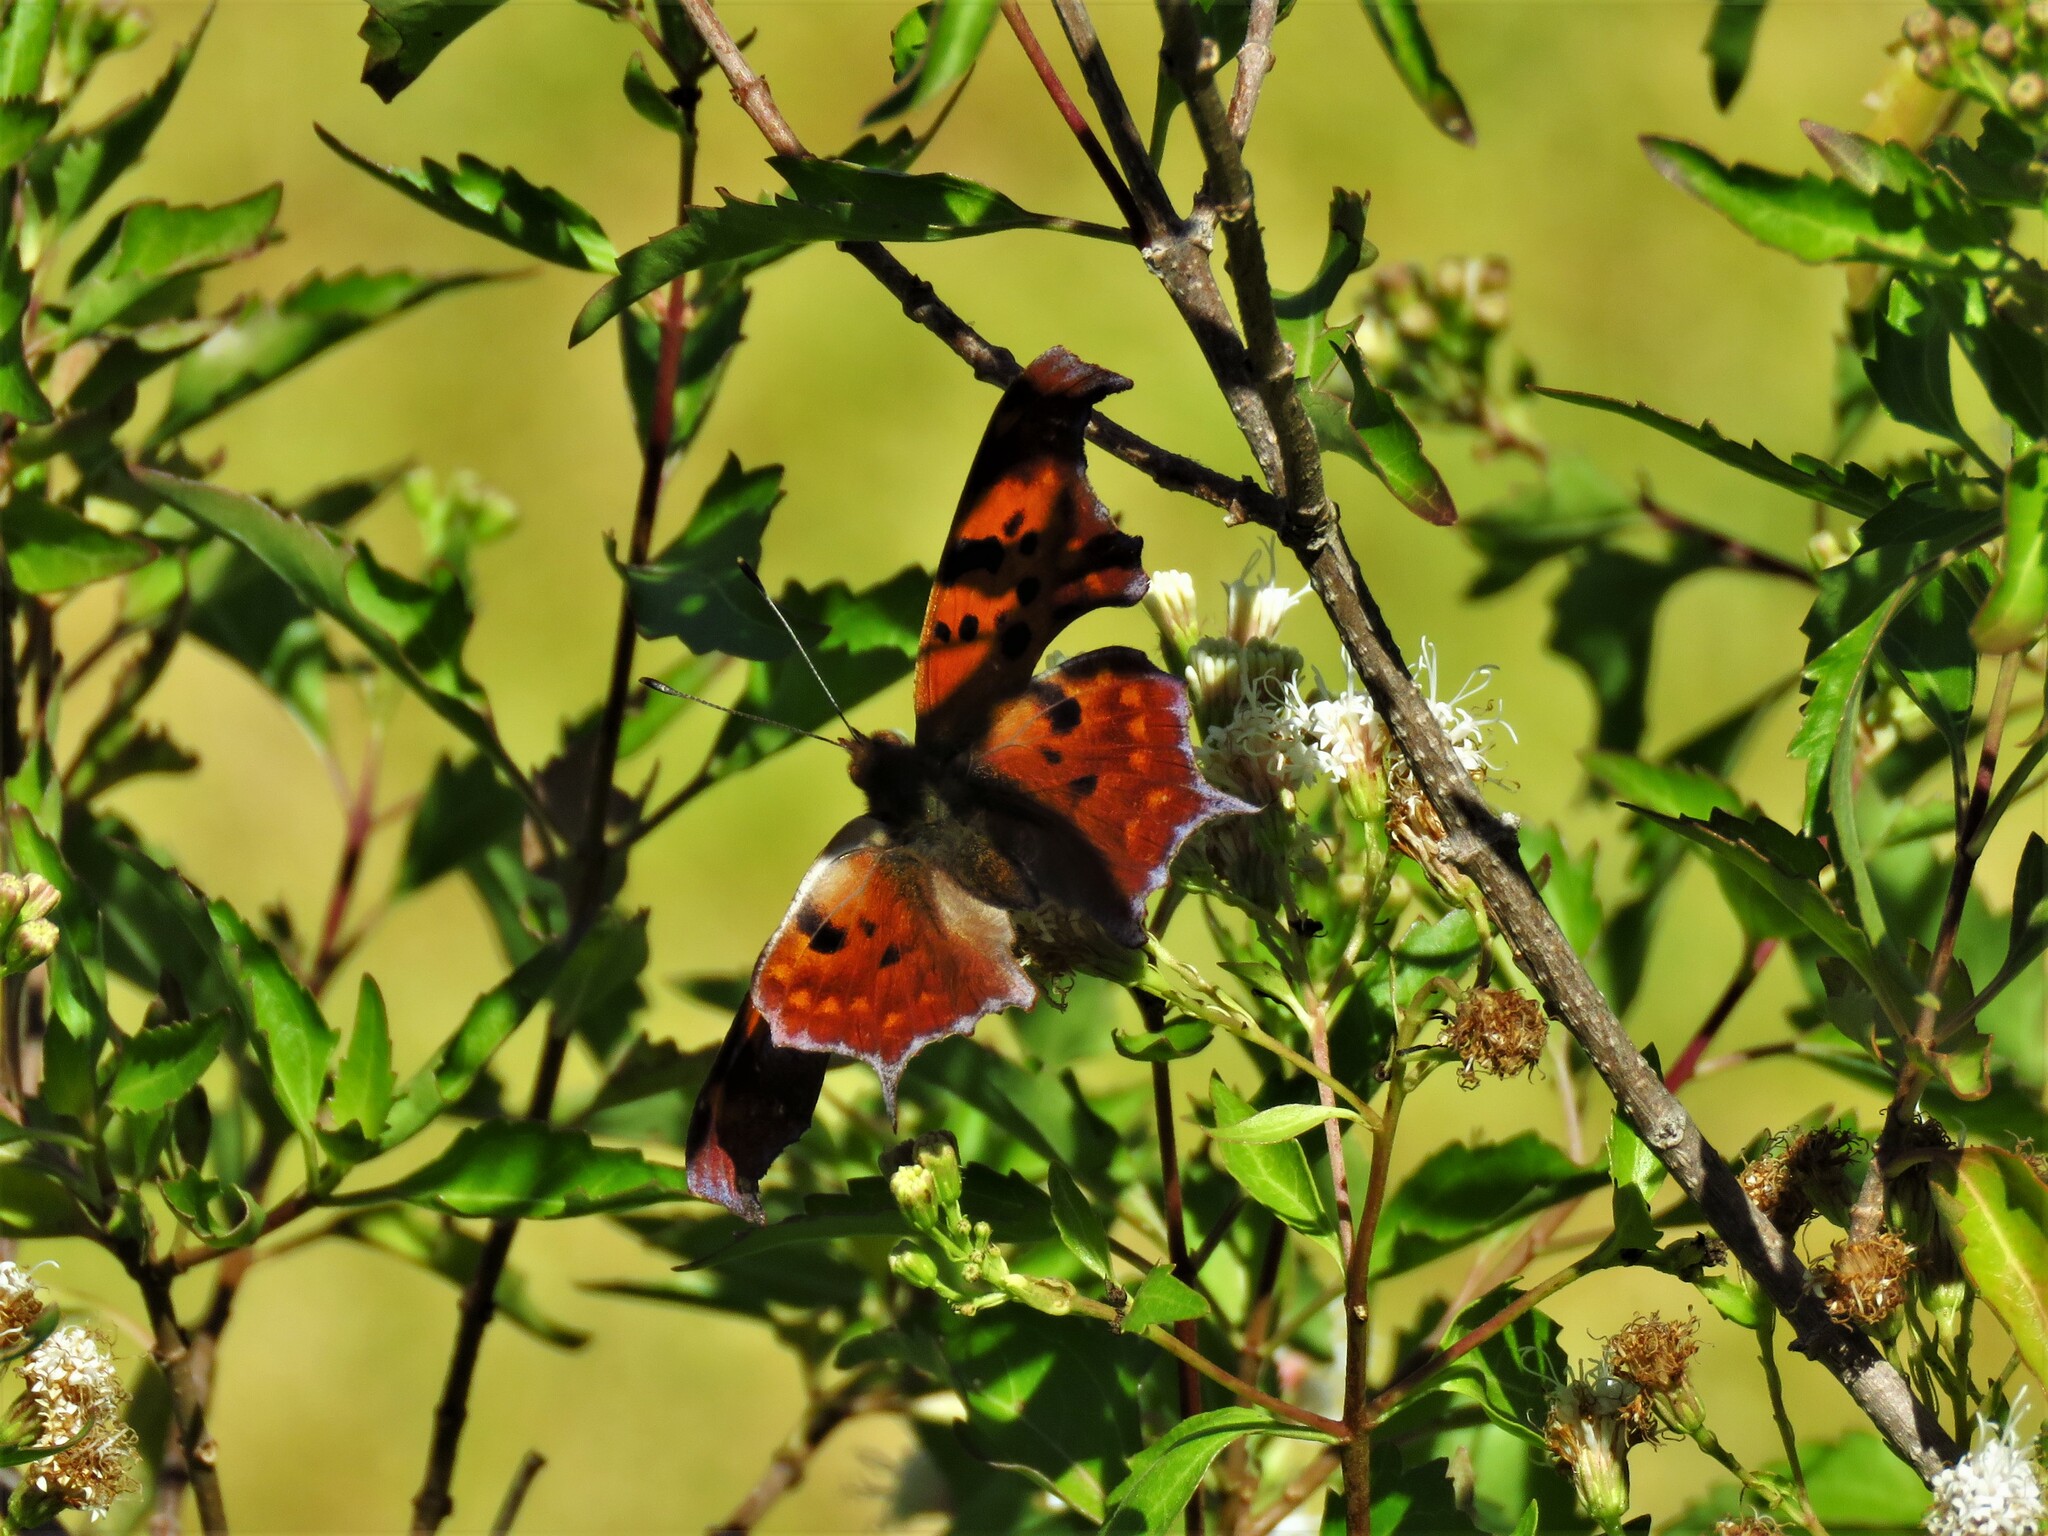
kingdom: Animalia
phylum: Arthropoda
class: Insecta
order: Lepidoptera
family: Nymphalidae
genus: Polygonia
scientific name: Polygonia interrogationis
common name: Question mark
